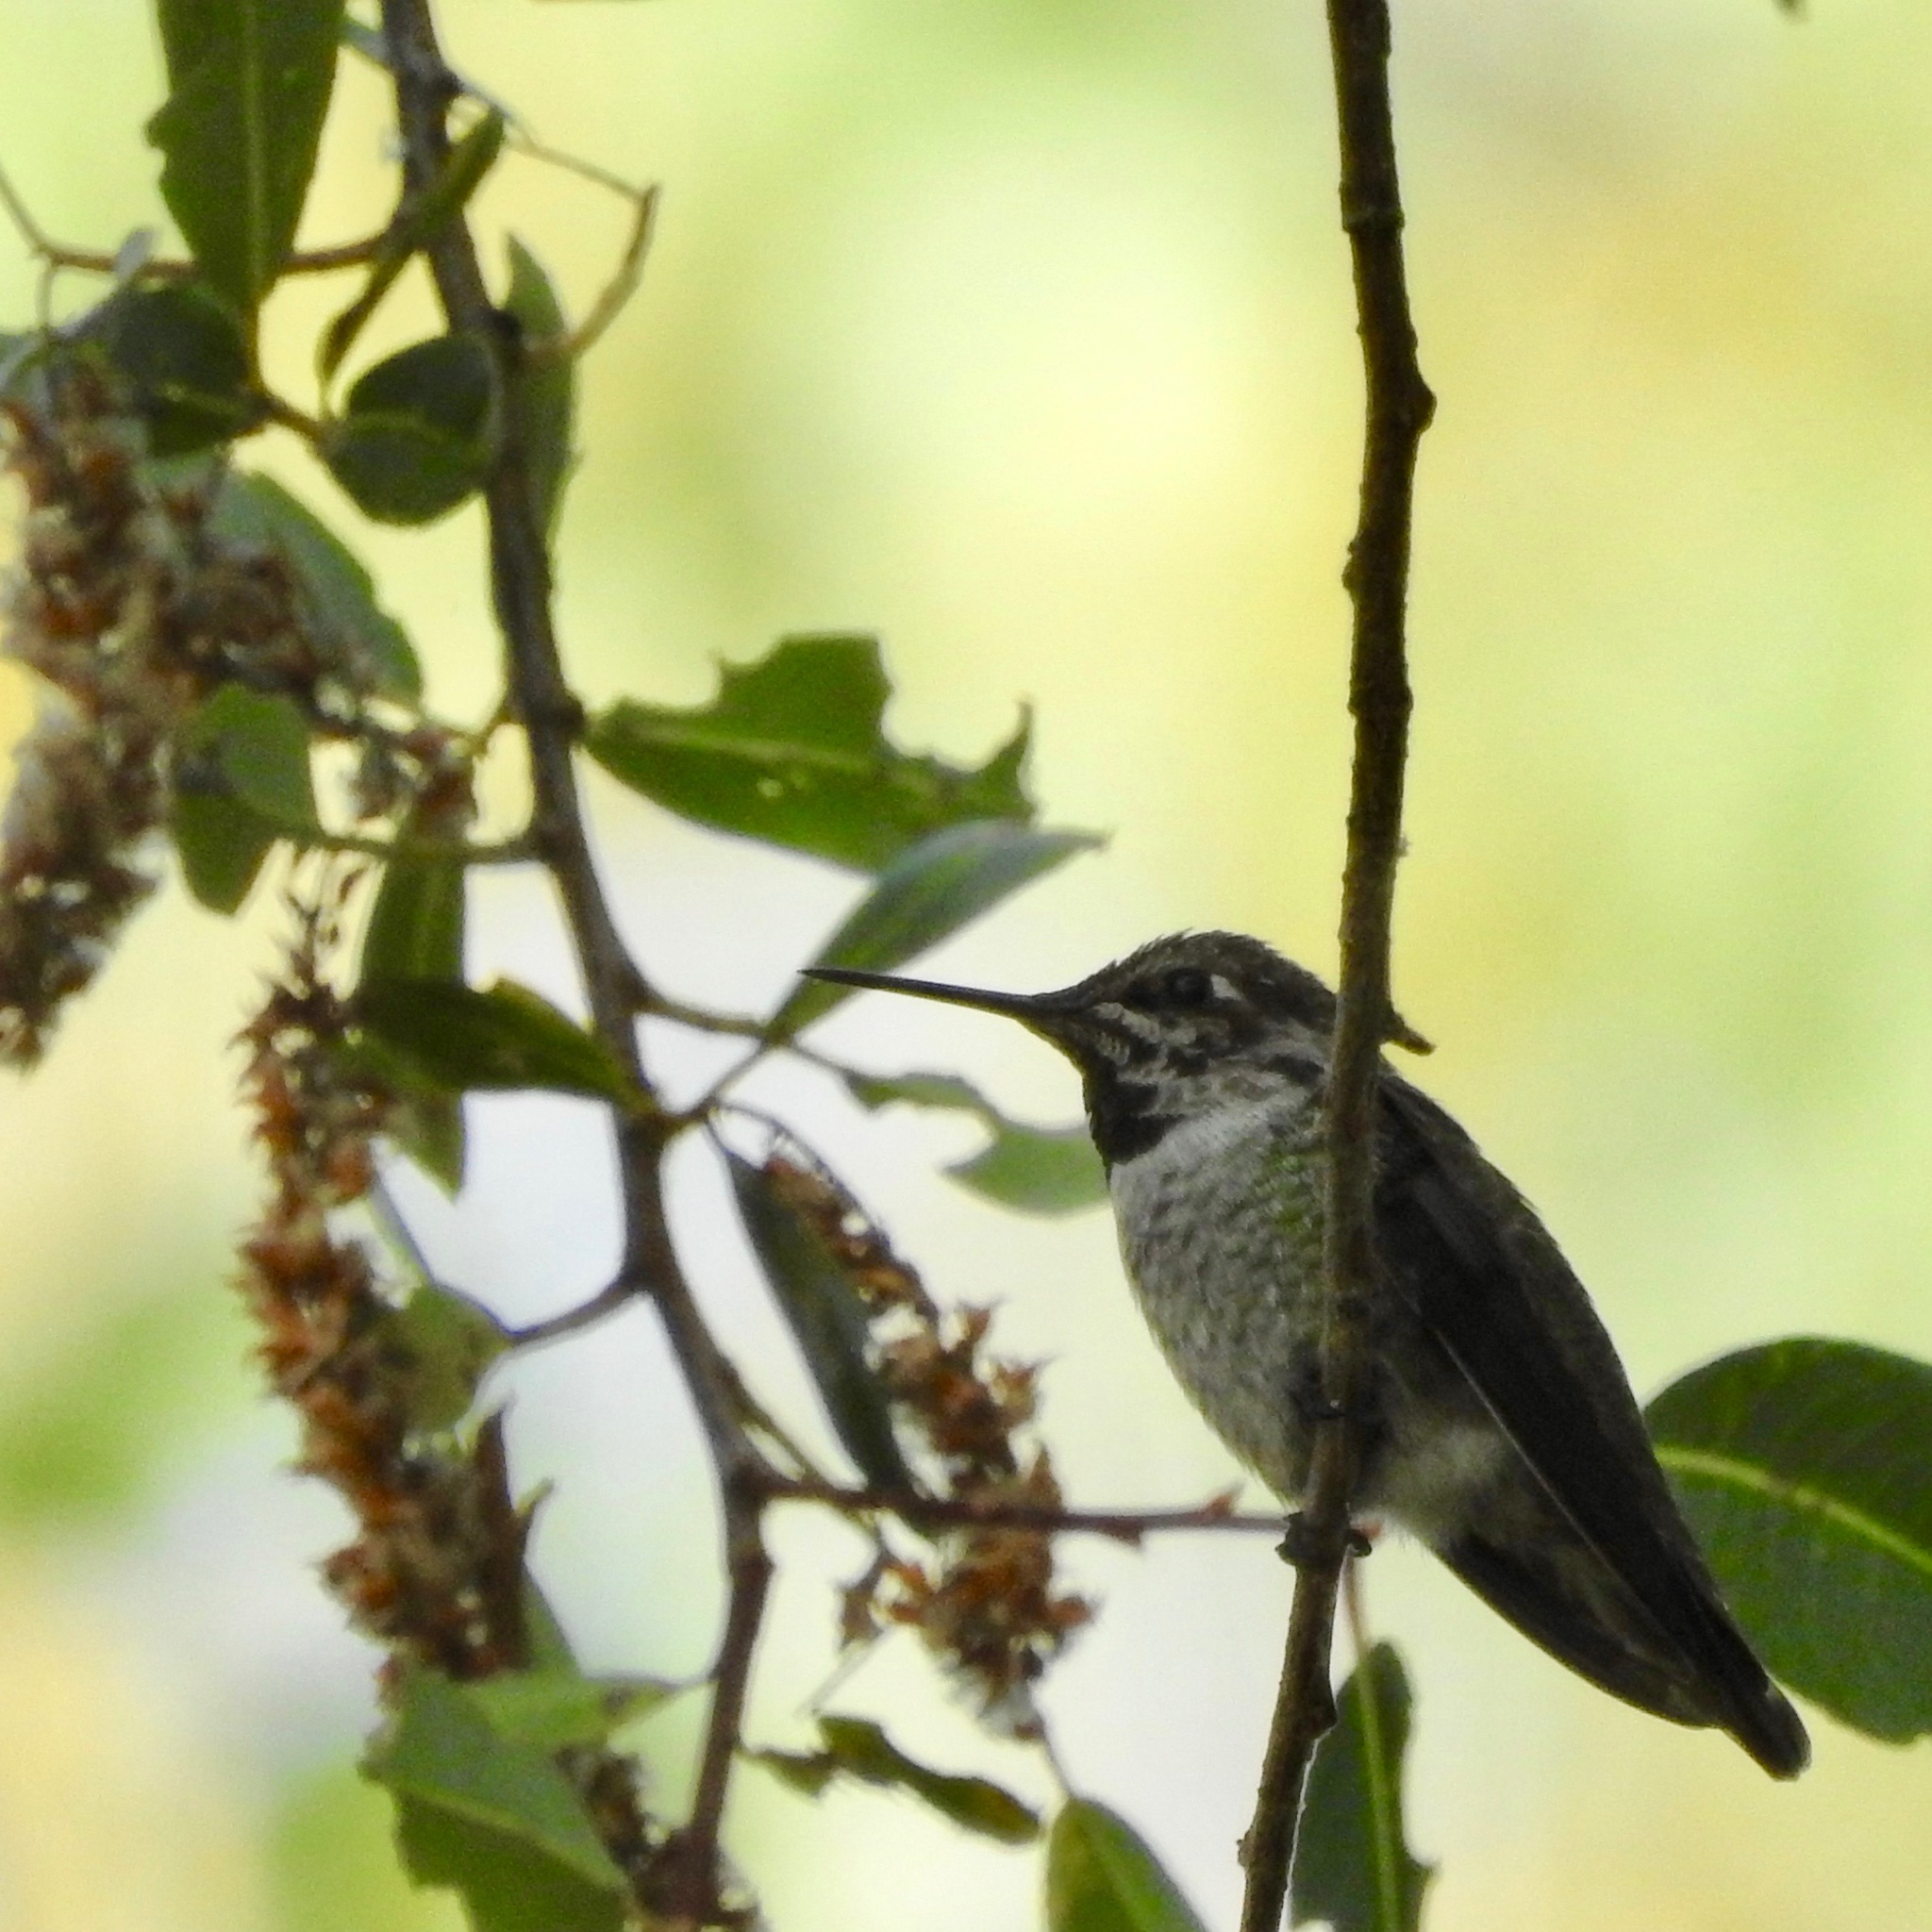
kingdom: Animalia
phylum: Chordata
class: Aves
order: Apodiformes
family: Trochilidae
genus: Calypte
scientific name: Calypte anna
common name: Anna's hummingbird
